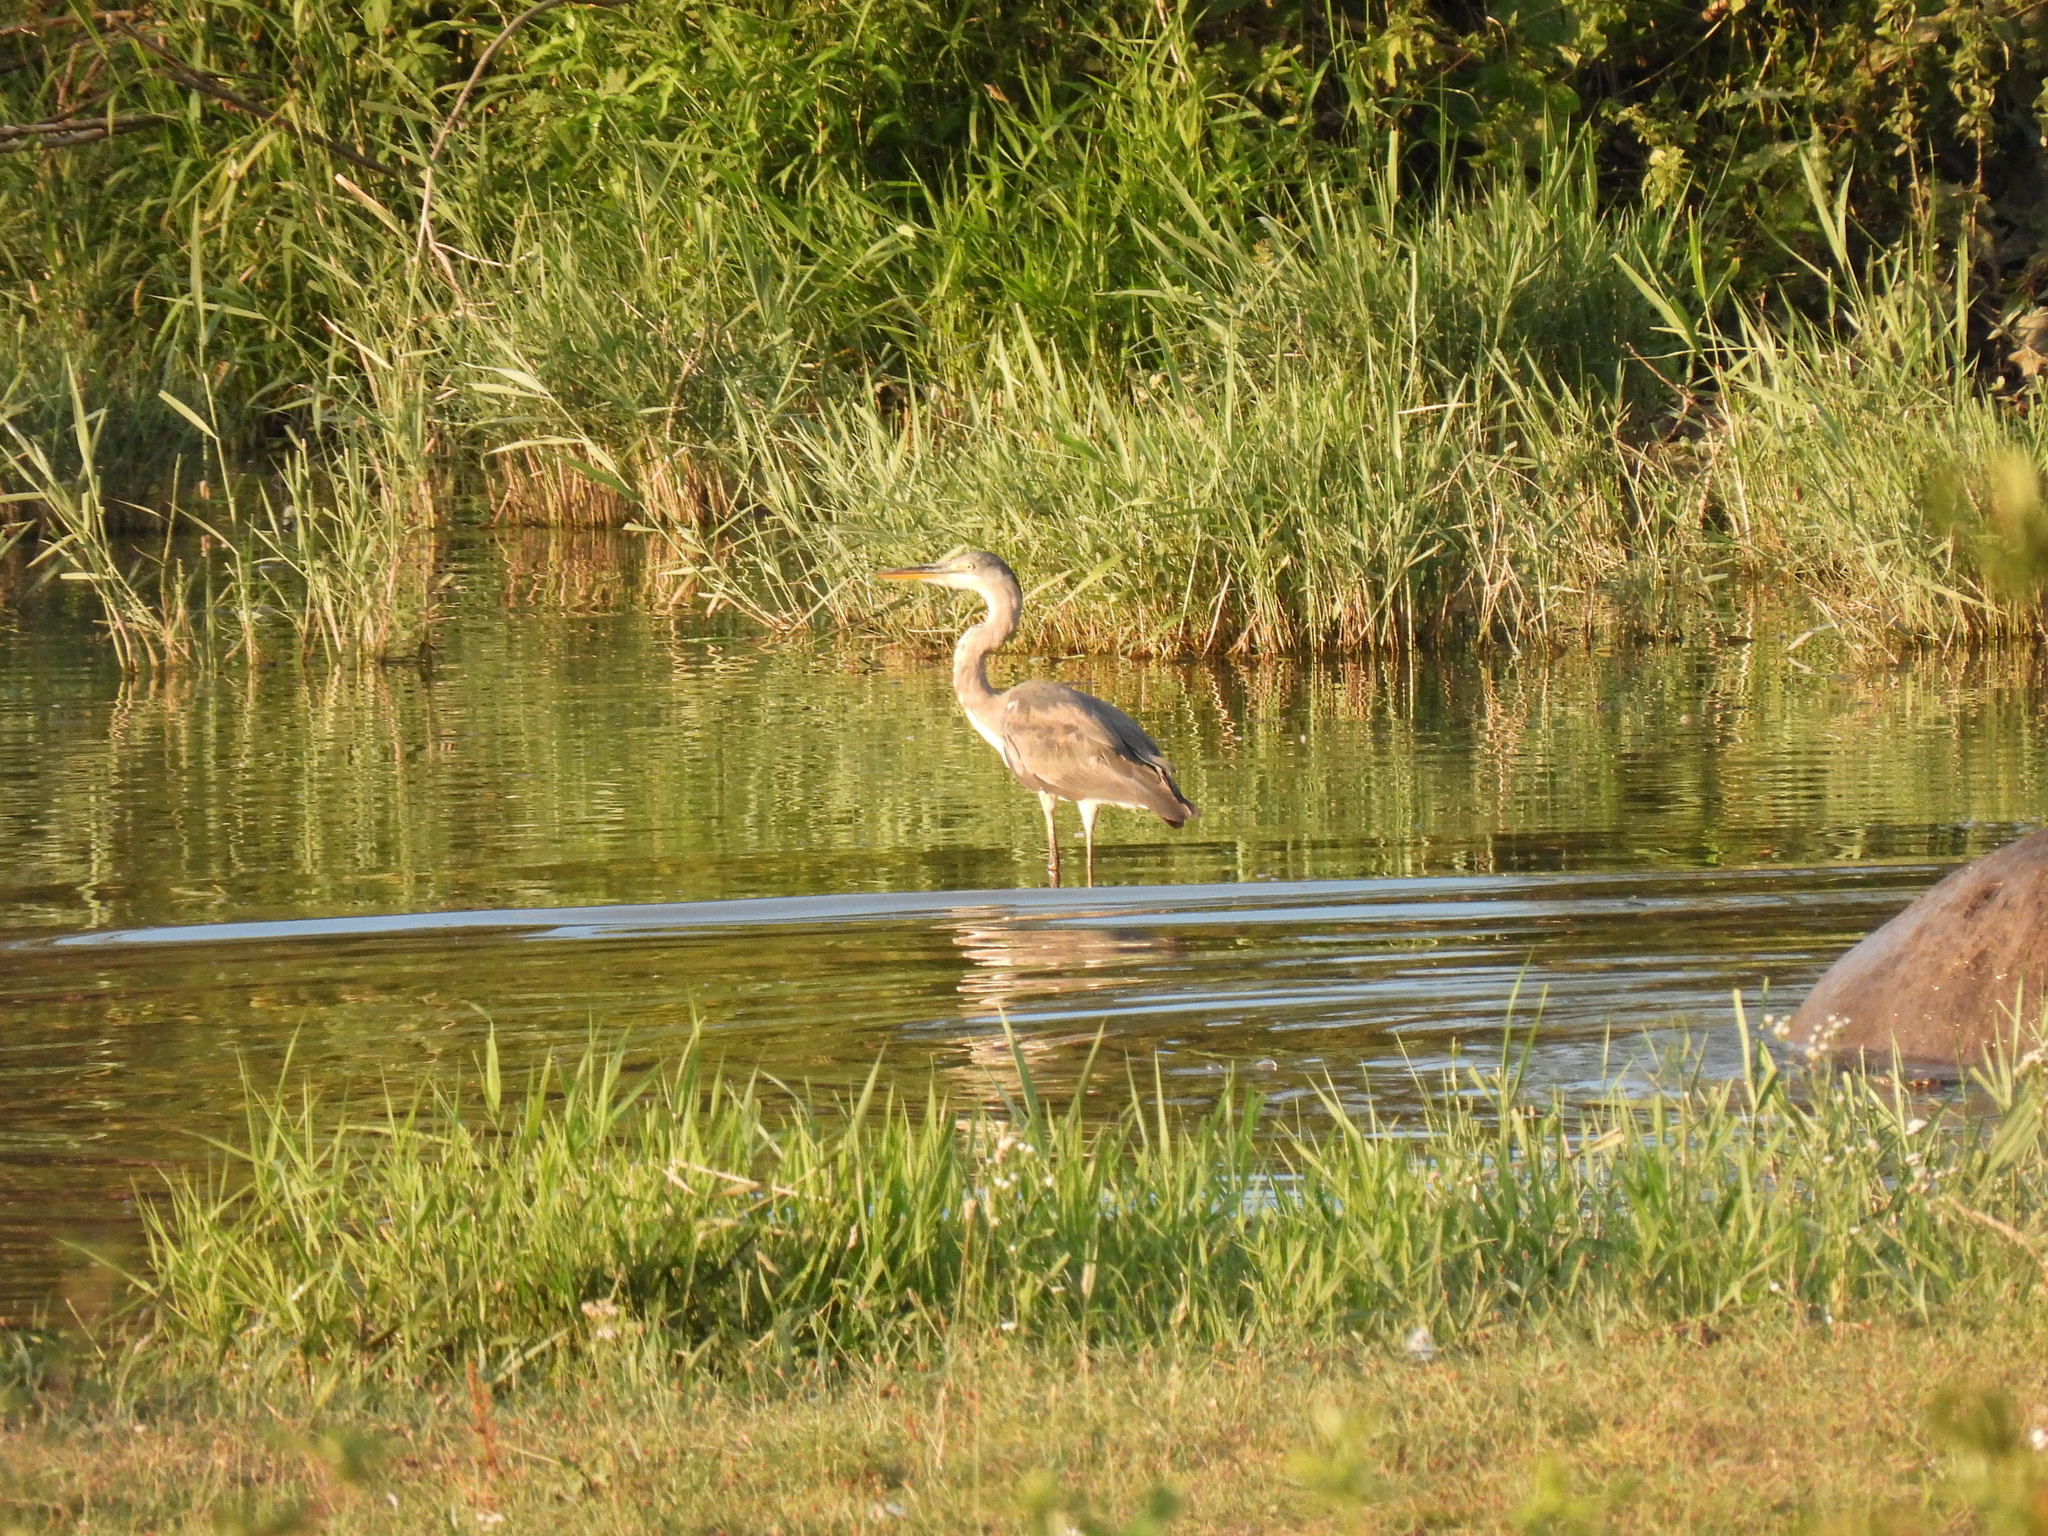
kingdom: Animalia
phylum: Chordata
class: Aves
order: Pelecaniformes
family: Ardeidae
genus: Ardea
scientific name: Ardea cinerea
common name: Grey heron
